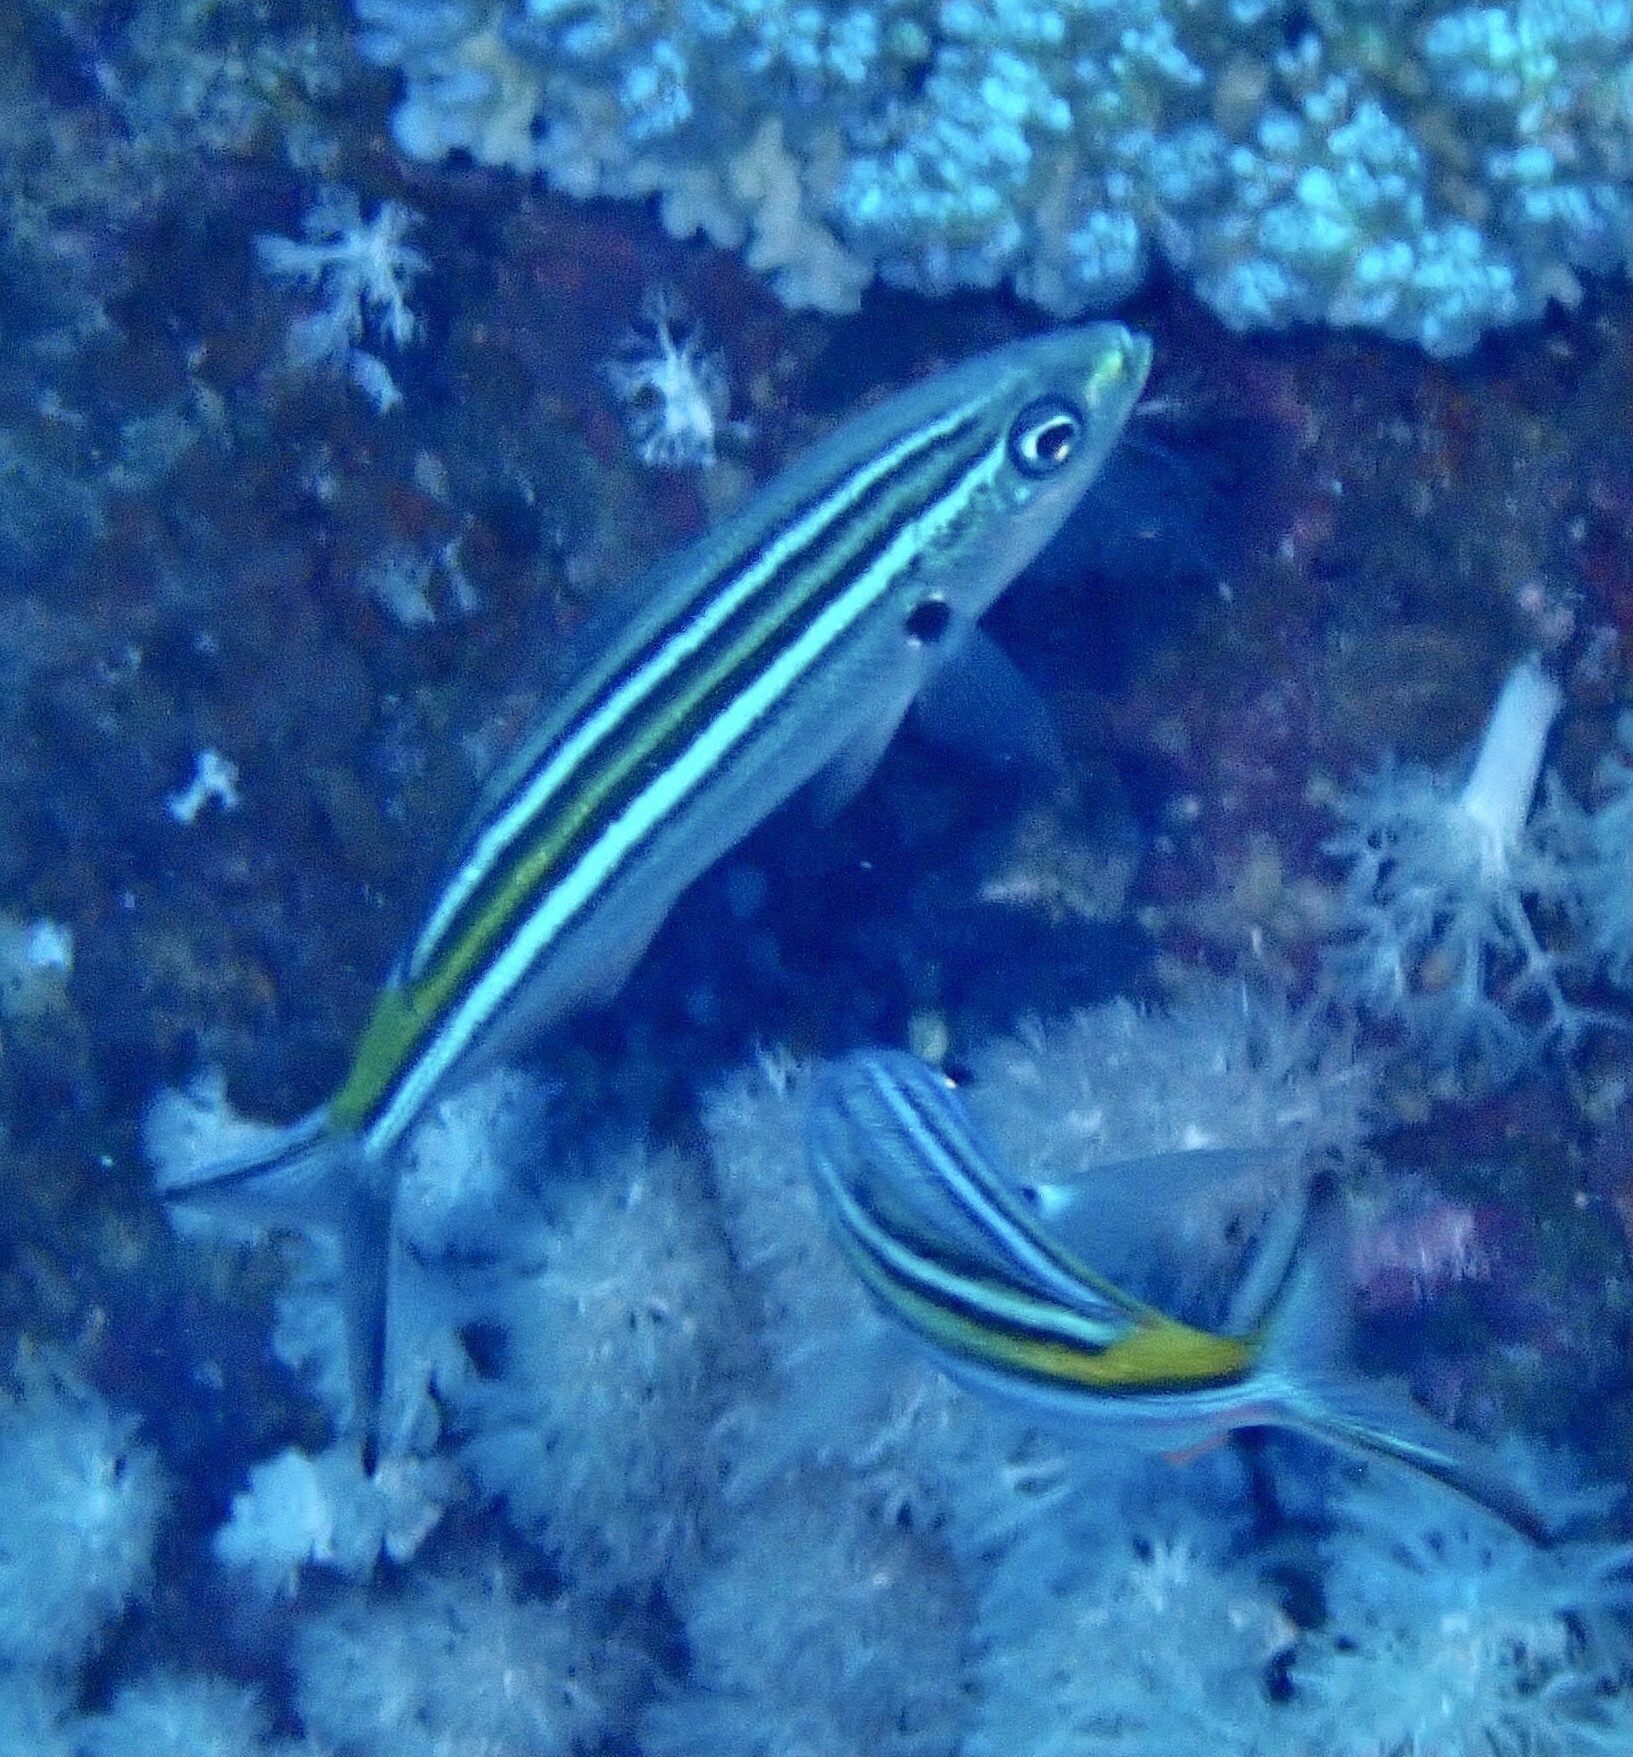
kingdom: Animalia
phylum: Chordata
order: Perciformes
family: Caesionidae
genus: Caesio
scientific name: Caesio striata
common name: Striated fusilier
